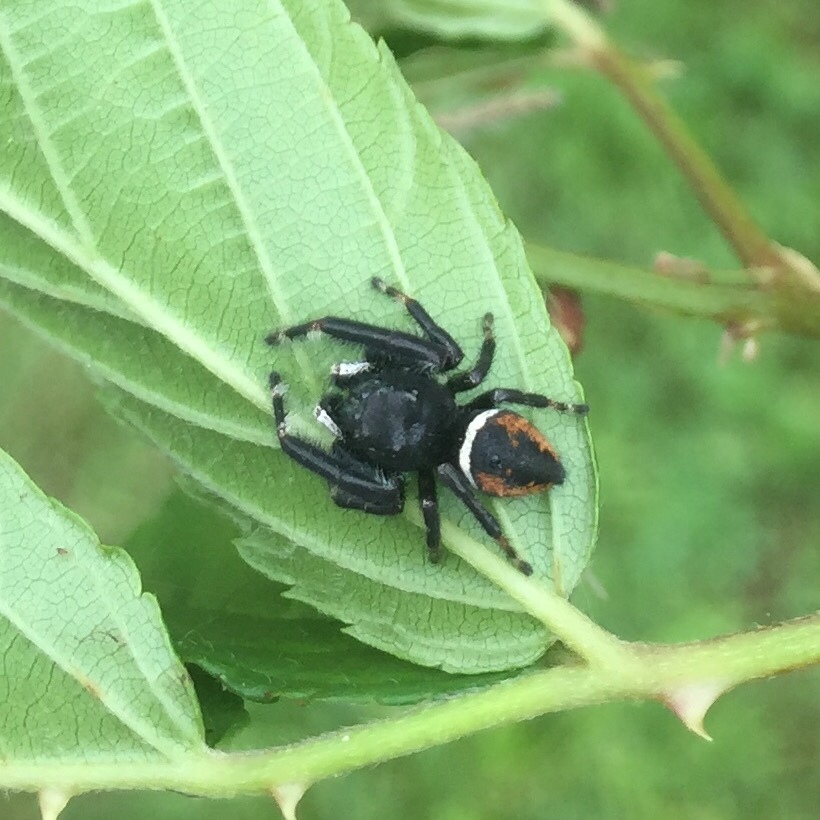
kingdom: Animalia
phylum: Arthropoda
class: Arachnida
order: Araneae
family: Salticidae
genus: Phidippus
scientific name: Phidippus clarus
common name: Brilliant jumping spider
